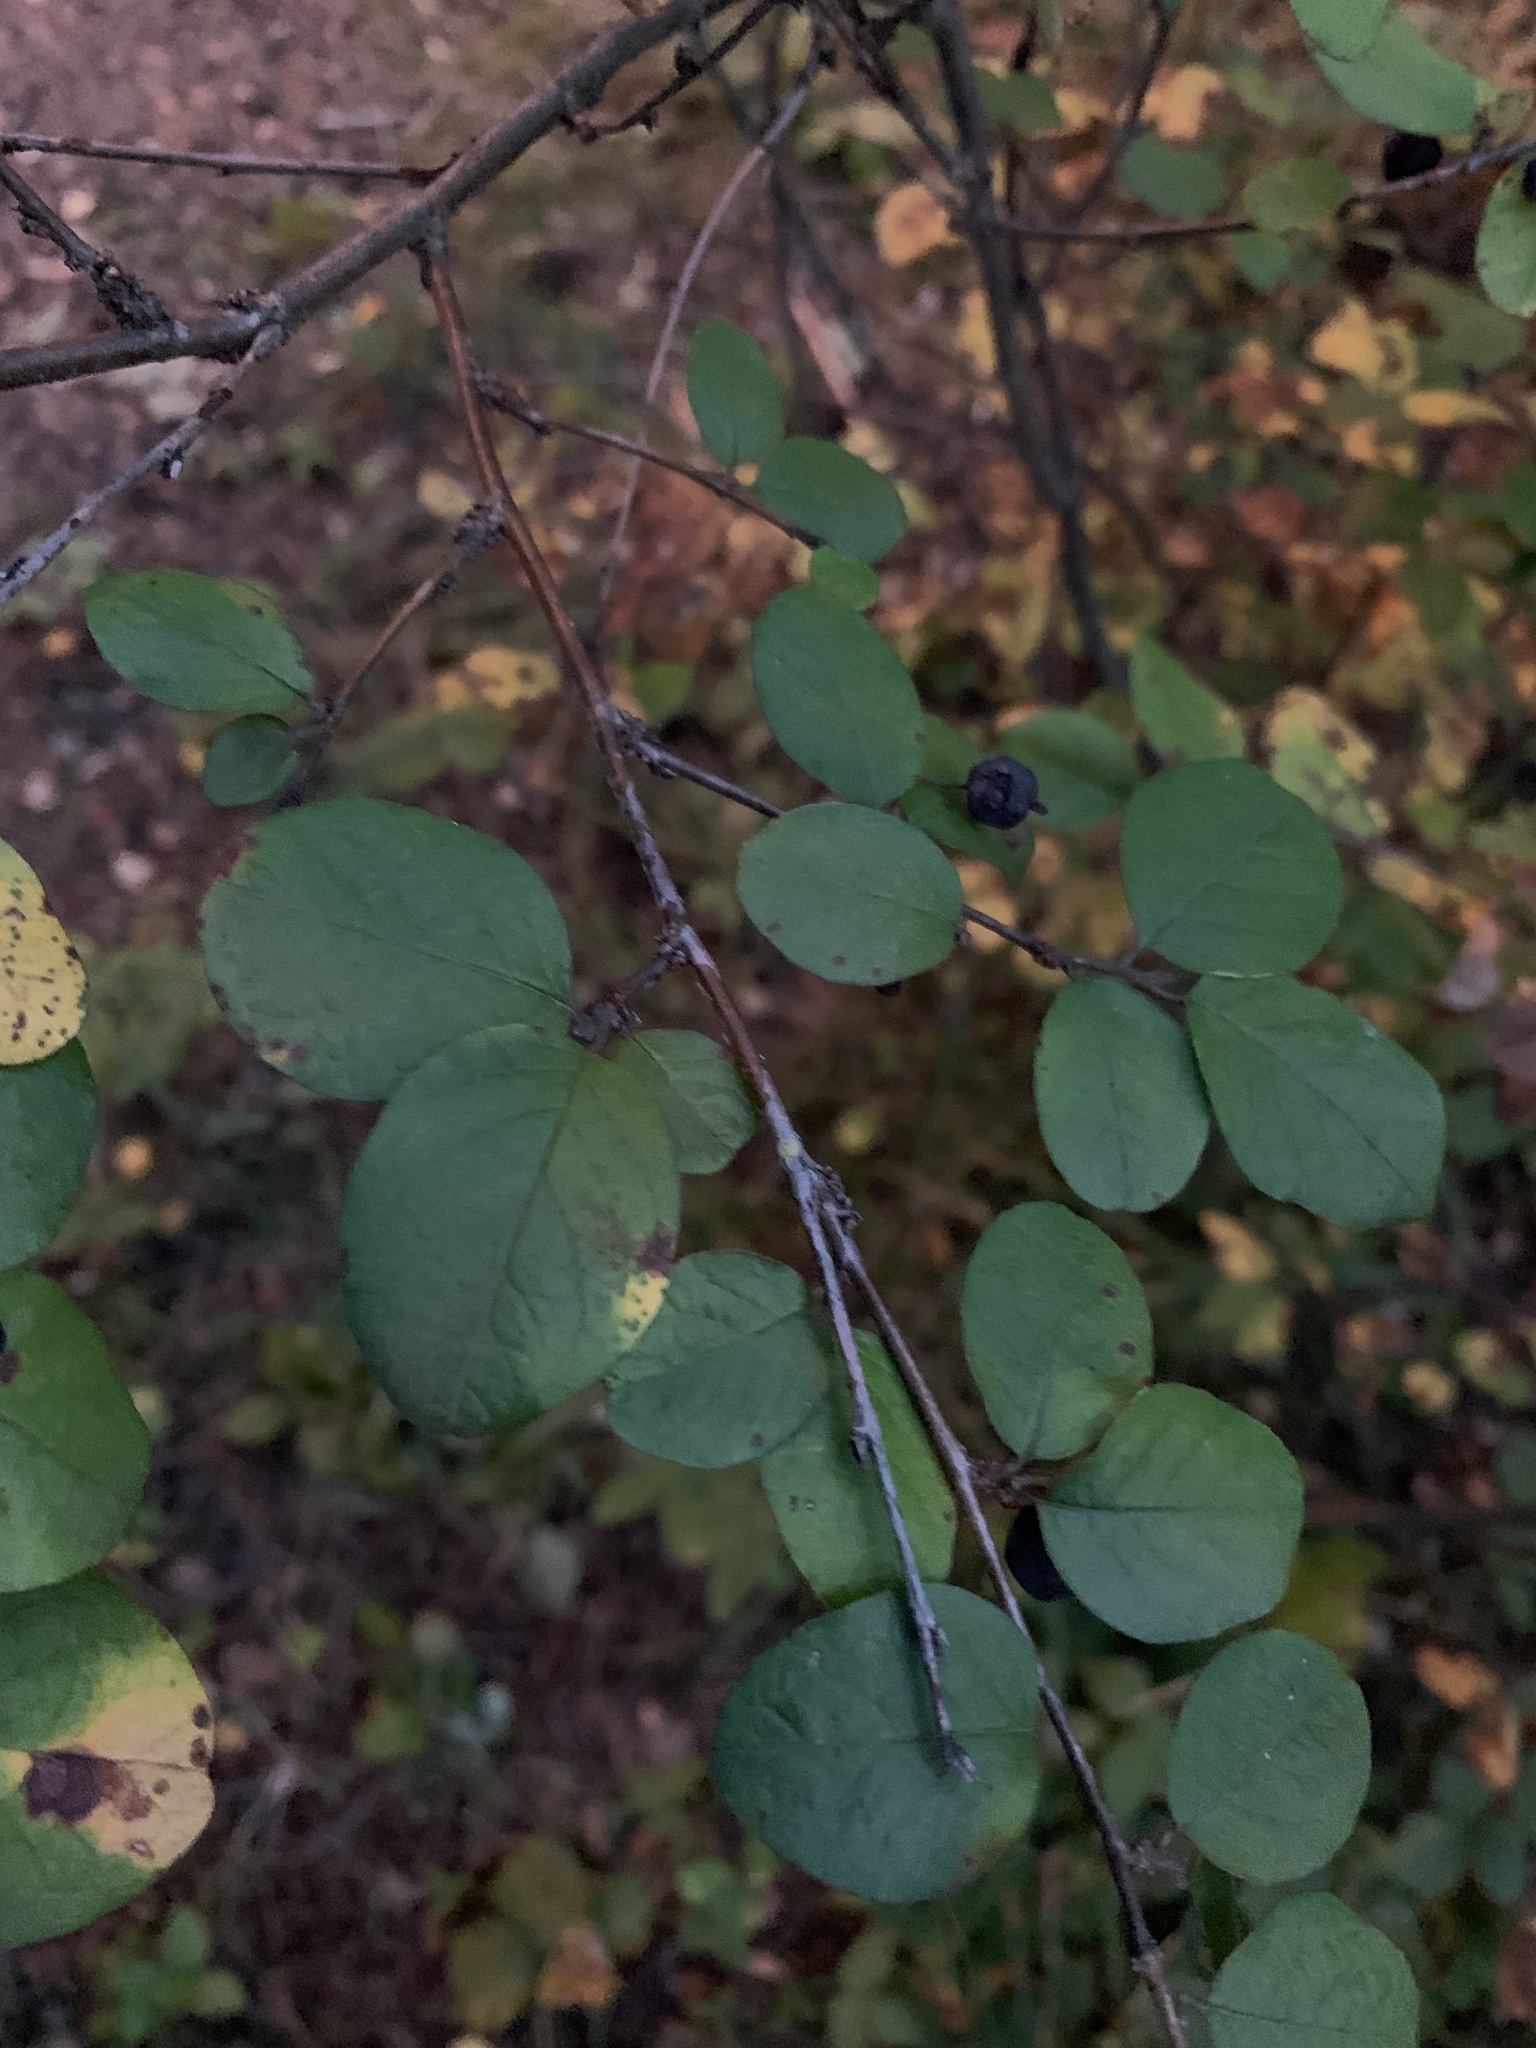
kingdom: Plantae
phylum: Tracheophyta
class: Magnoliopsida
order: Rosales
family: Rosaceae
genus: Cotoneaster
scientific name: Cotoneaster melanocarpus
